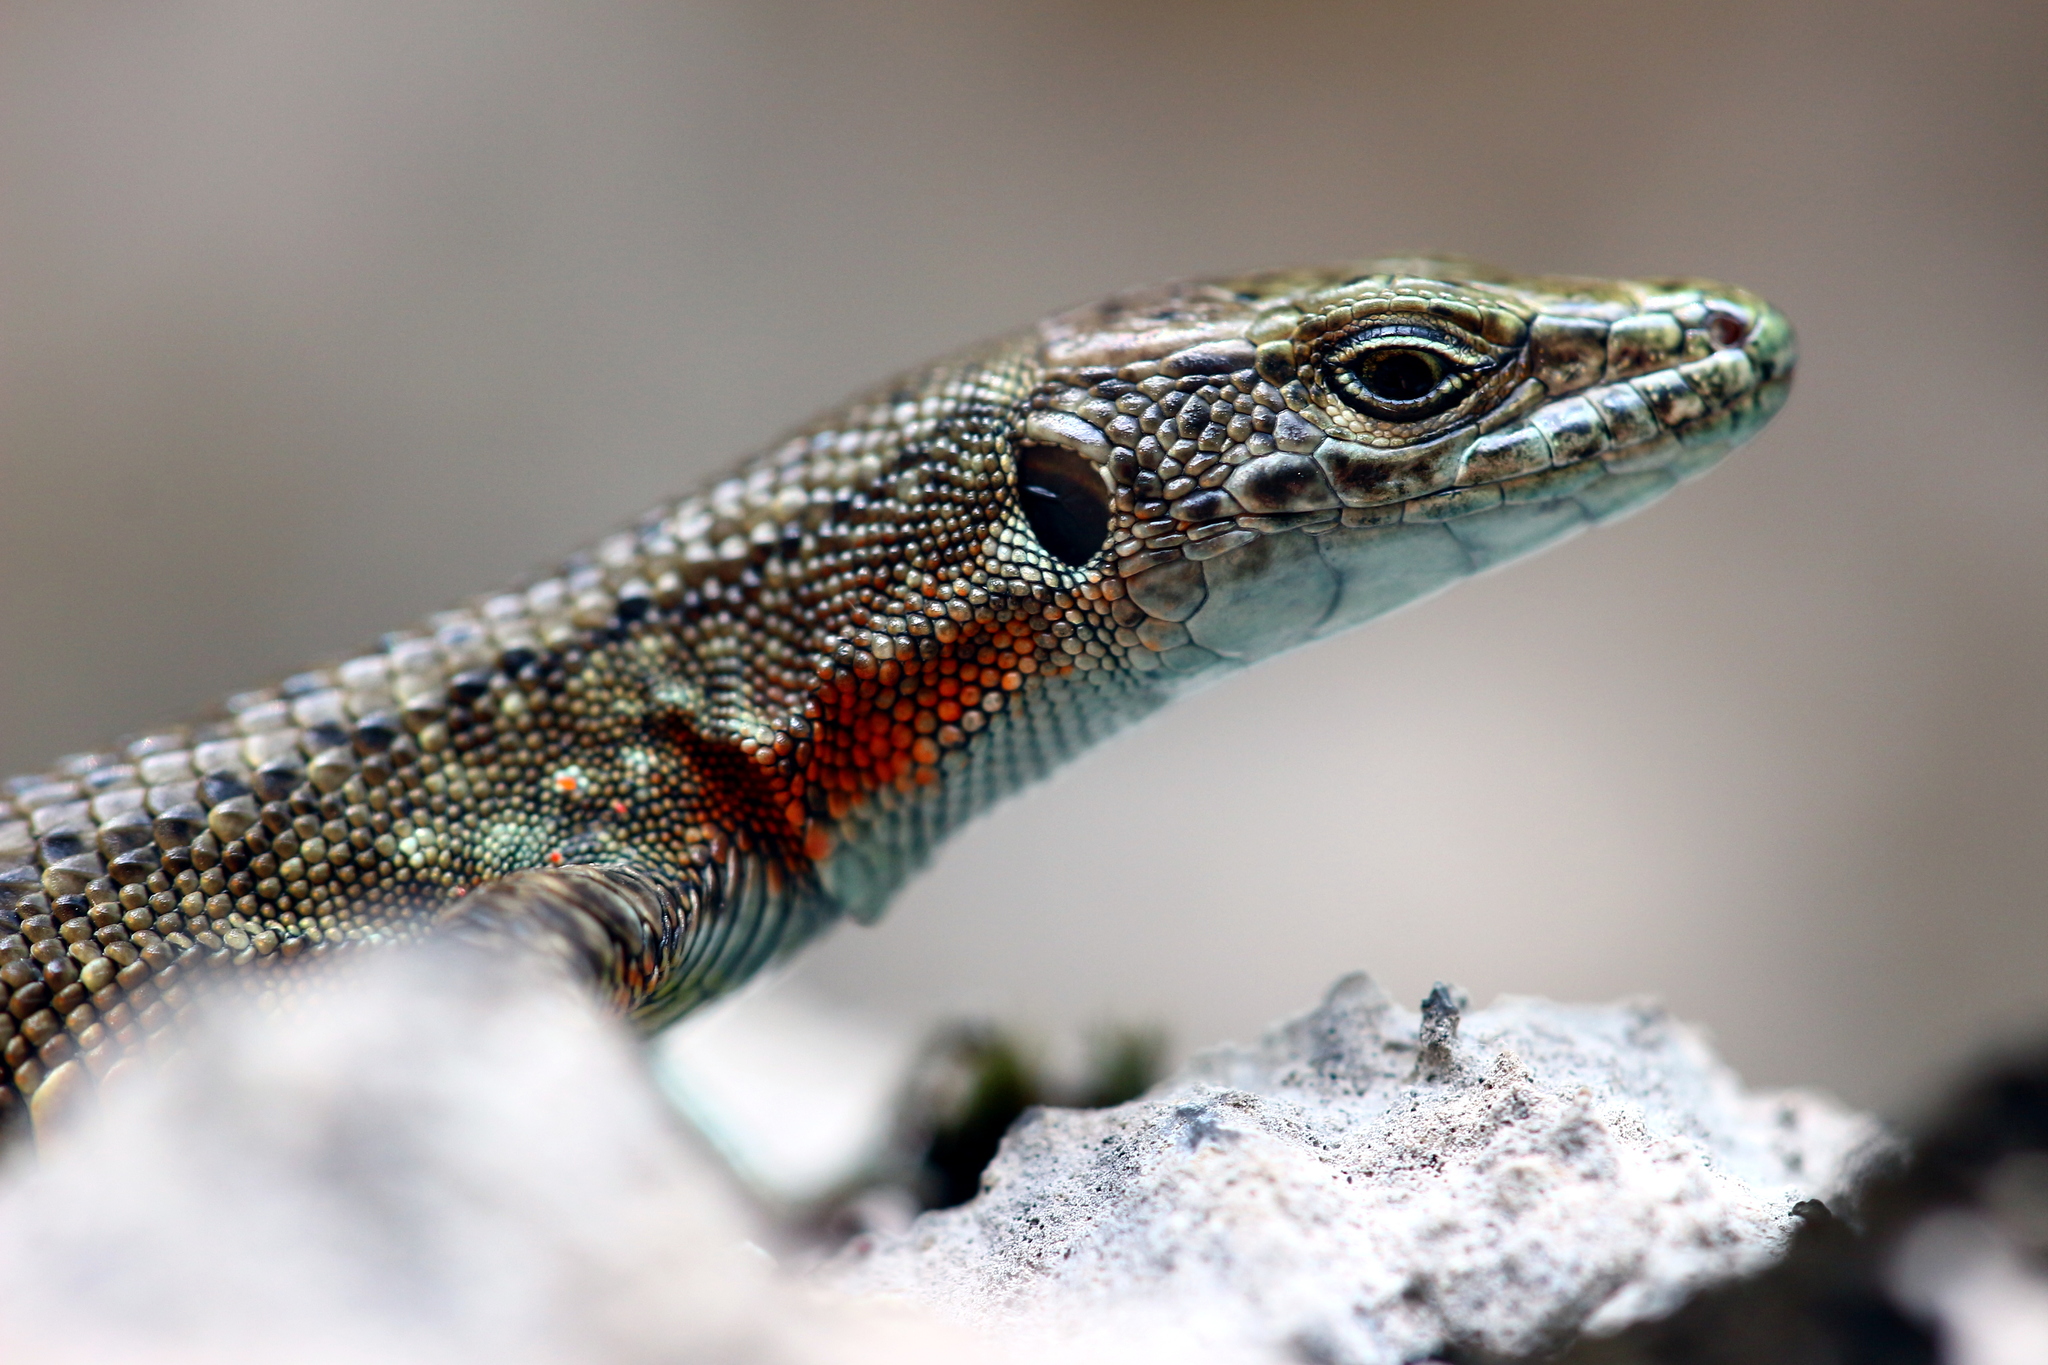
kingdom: Animalia
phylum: Chordata
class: Squamata
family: Lacertidae
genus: Algyroides
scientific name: Algyroides nigropunctatus
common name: Blue-throated keeled lizard
